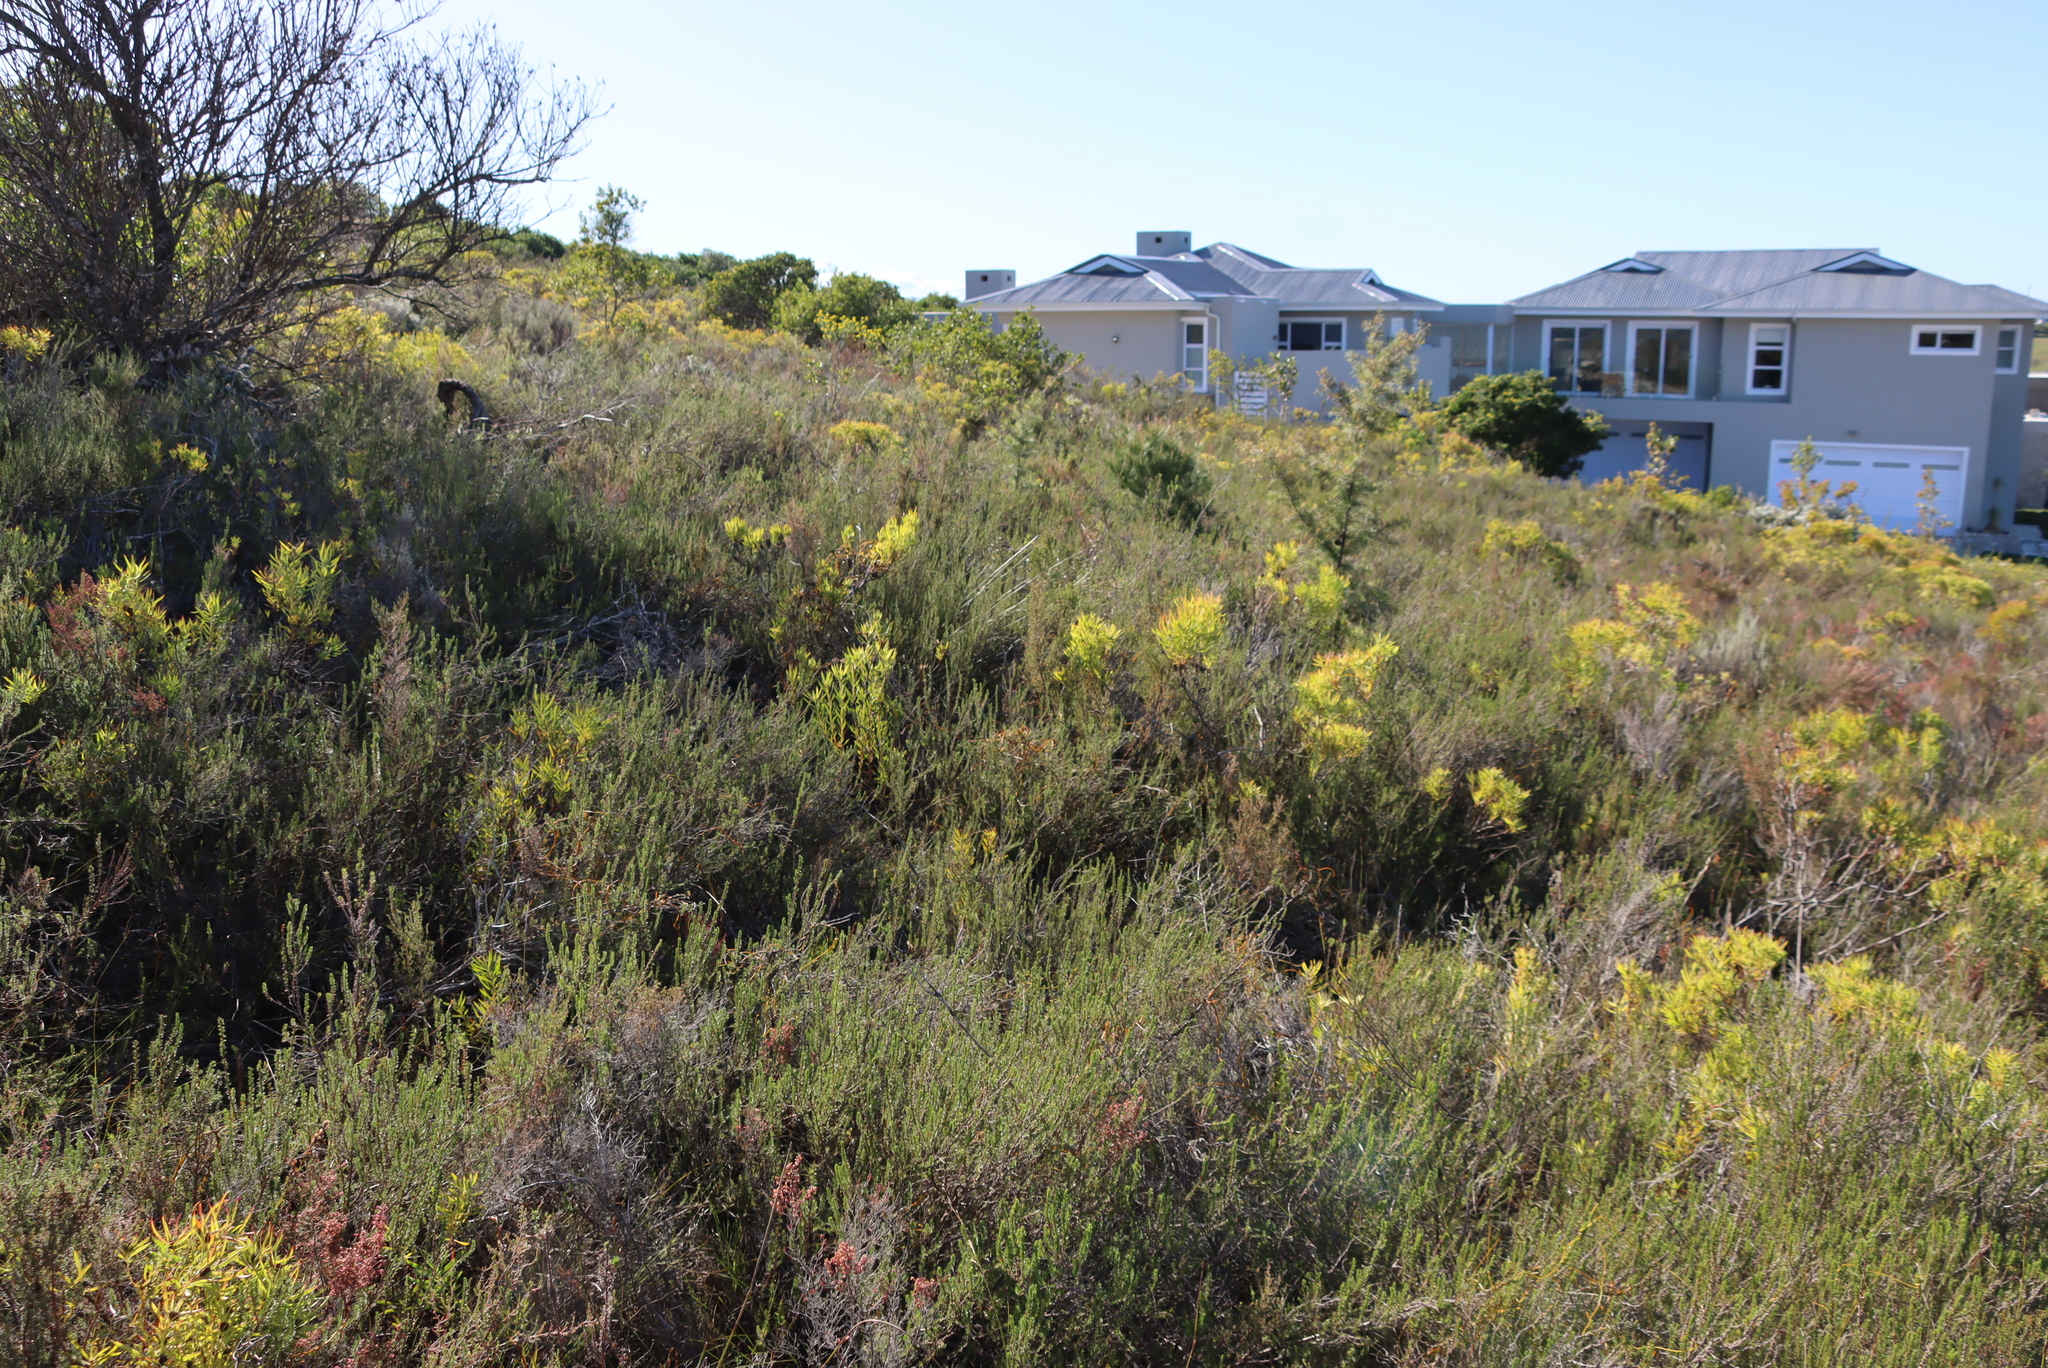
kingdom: Plantae
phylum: Tracheophyta
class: Magnoliopsida
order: Rosales
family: Rosaceae
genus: Cliffortia
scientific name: Cliffortia linearifolia
